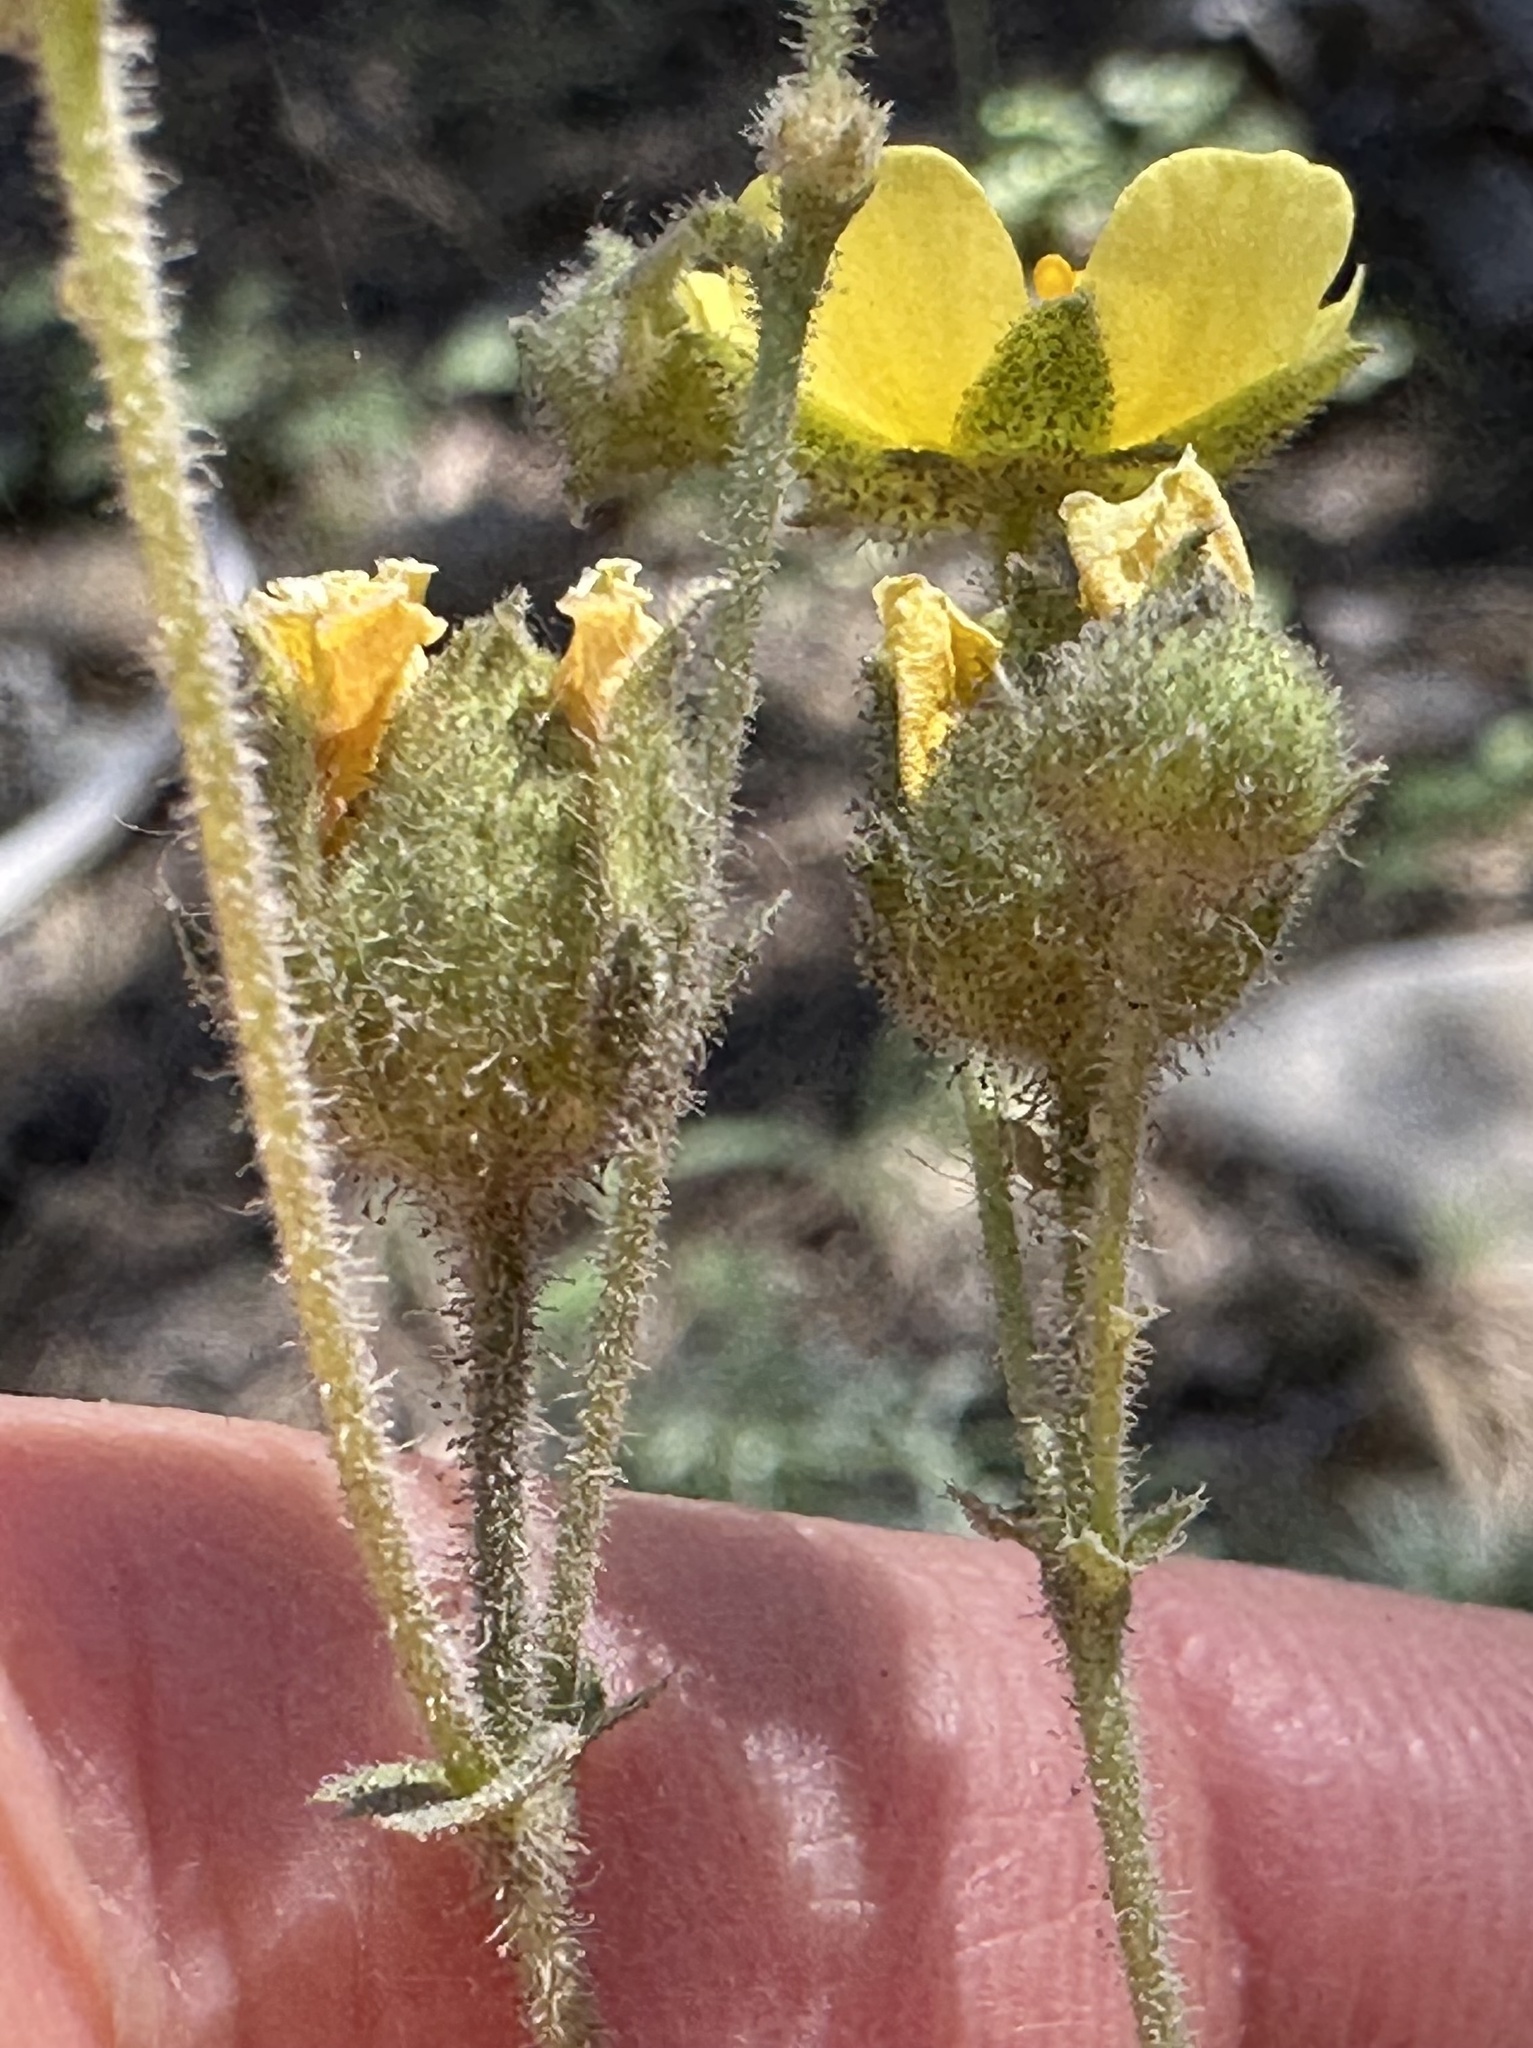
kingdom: Plantae
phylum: Tracheophyta
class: Magnoliopsida
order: Rosales
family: Rosaceae
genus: Drymocallis
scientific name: Drymocallis glandulosa
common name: Sticky cinquefoil
